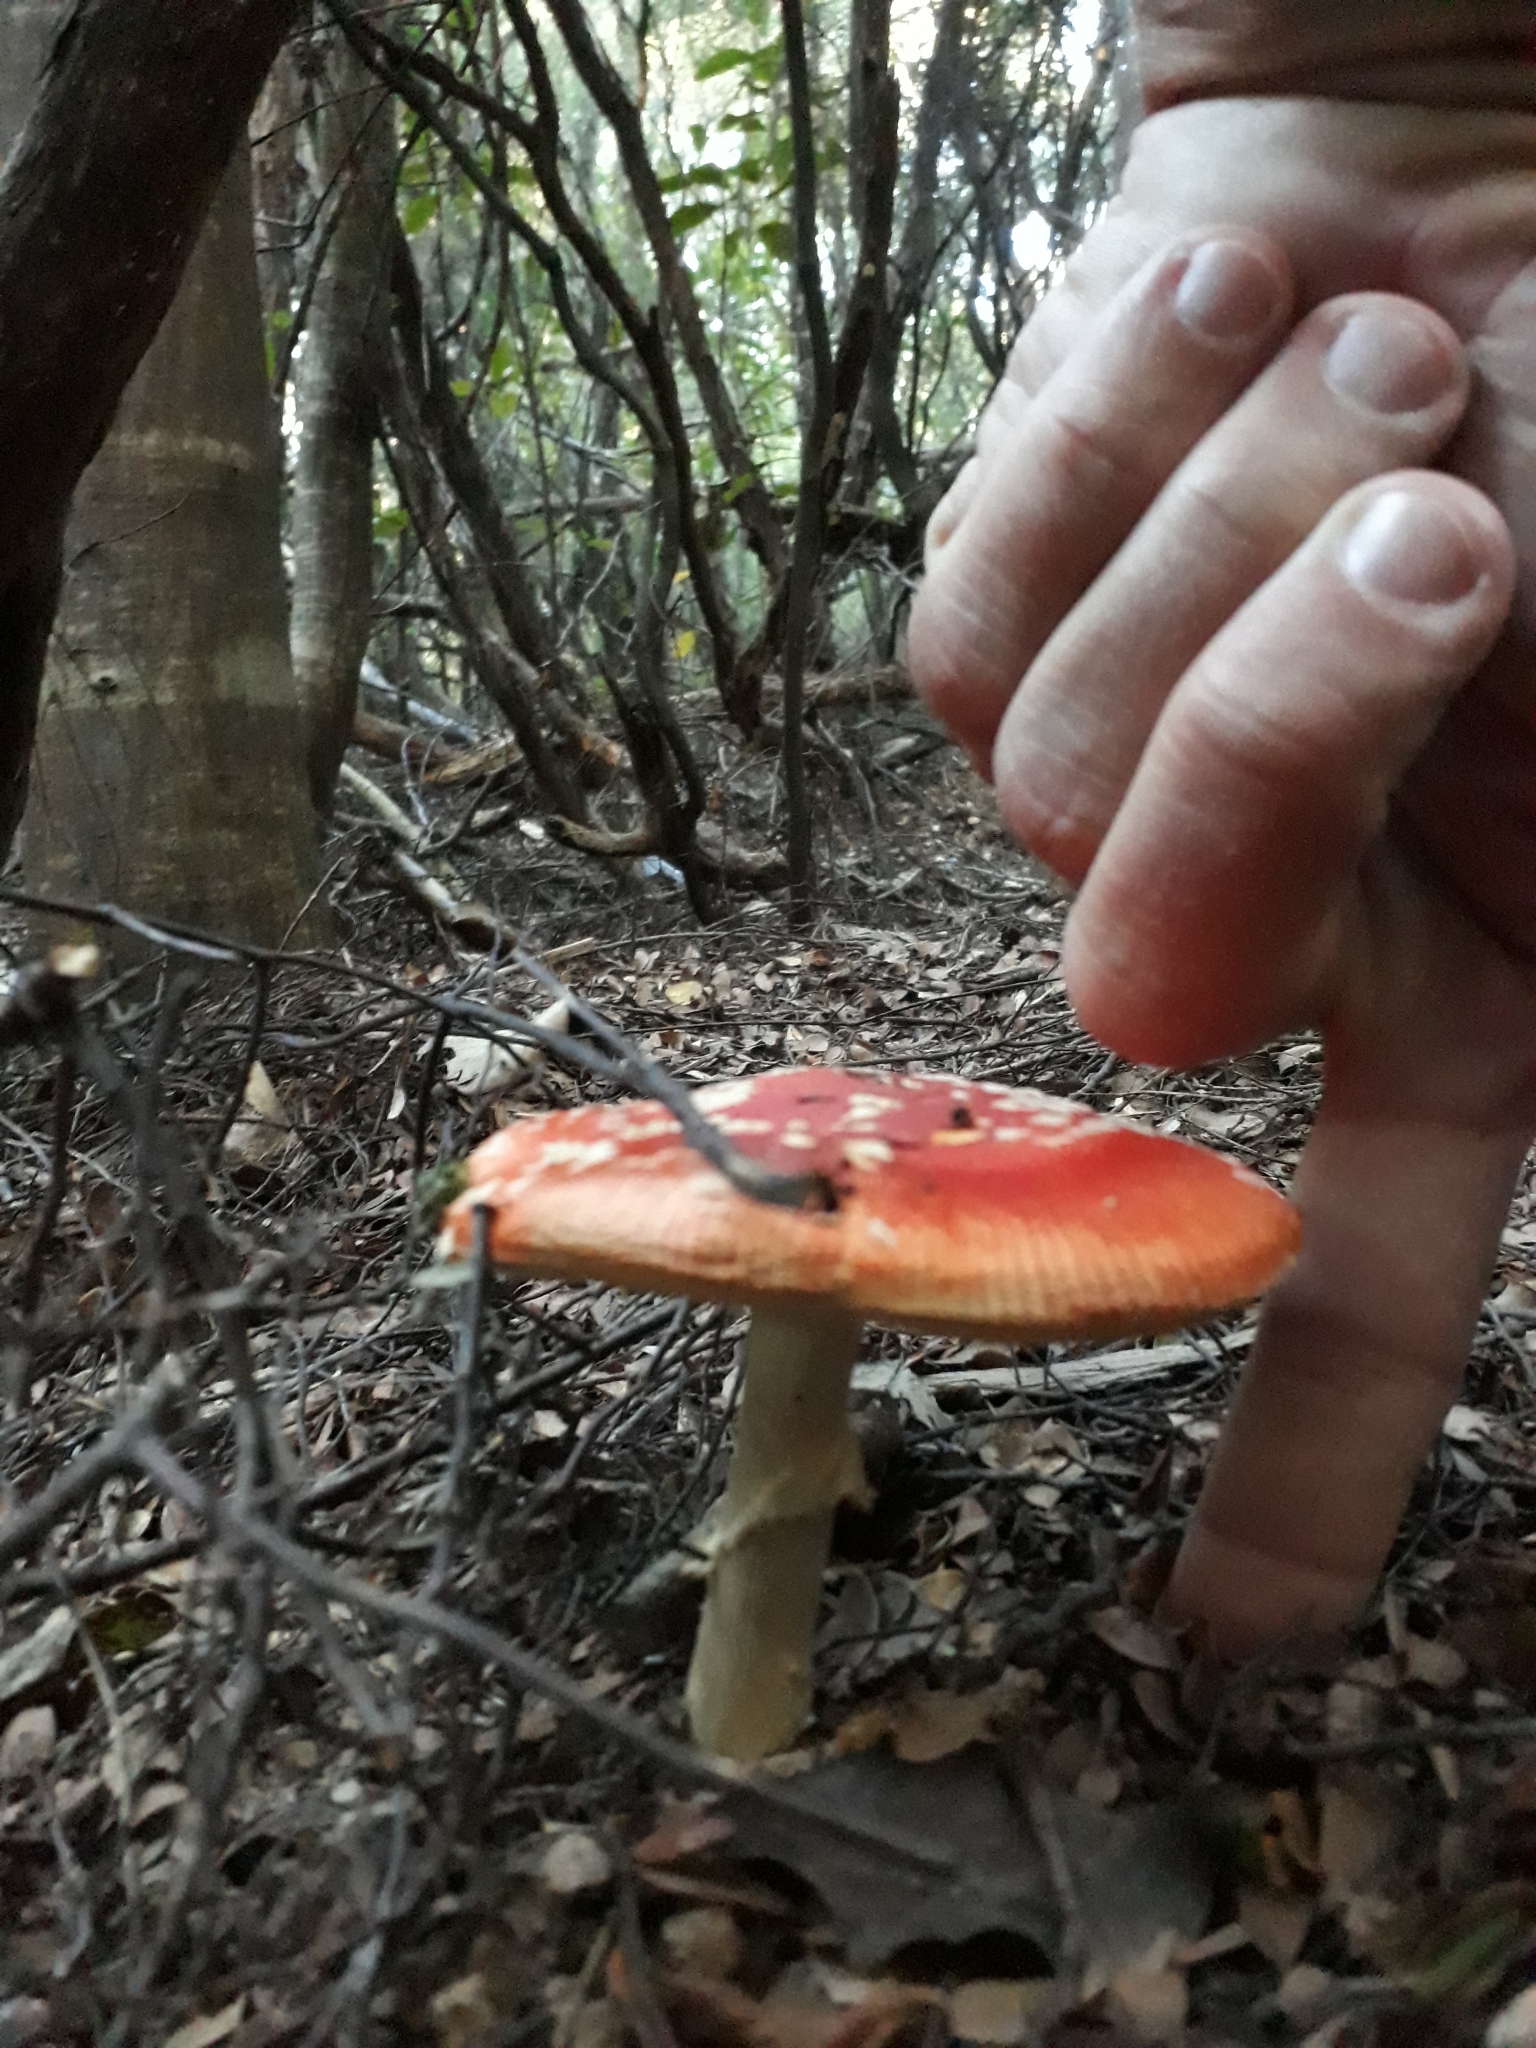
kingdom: Fungi
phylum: Basidiomycota
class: Agaricomycetes
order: Agaricales
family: Amanitaceae
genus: Amanita
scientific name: Amanita muscaria
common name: Fly agaric
